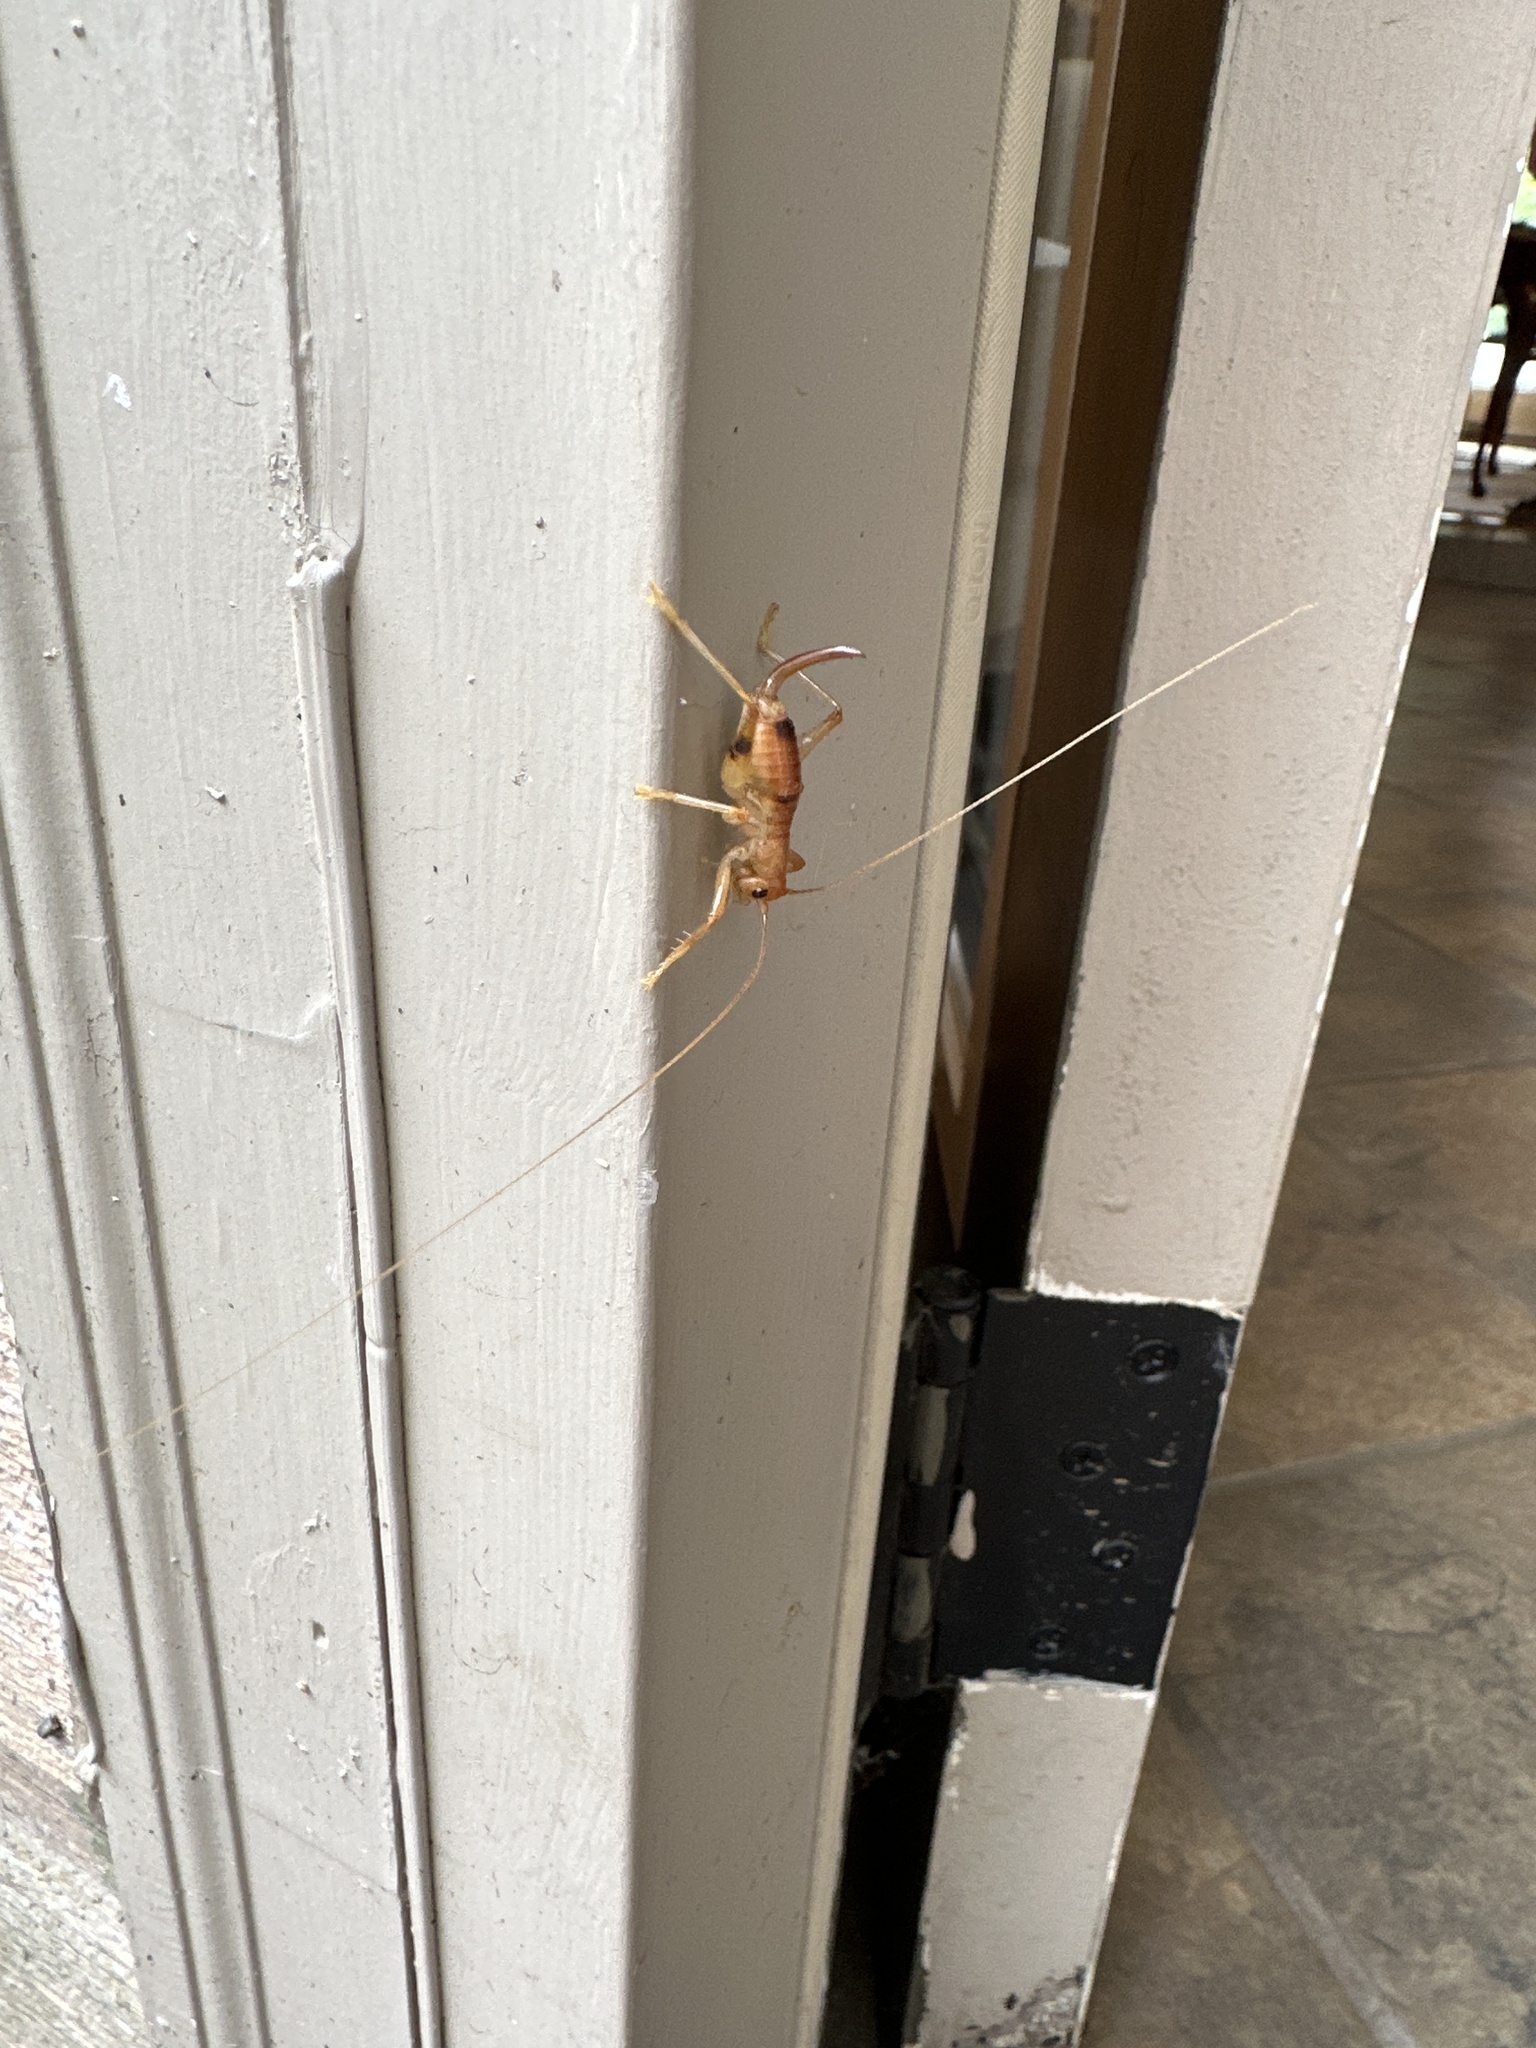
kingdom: Animalia
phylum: Arthropoda
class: Insecta
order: Orthoptera
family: Gryllacrididae
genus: Camptonotus
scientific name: Camptonotus carolinensis
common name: Carolina leaf-roller
